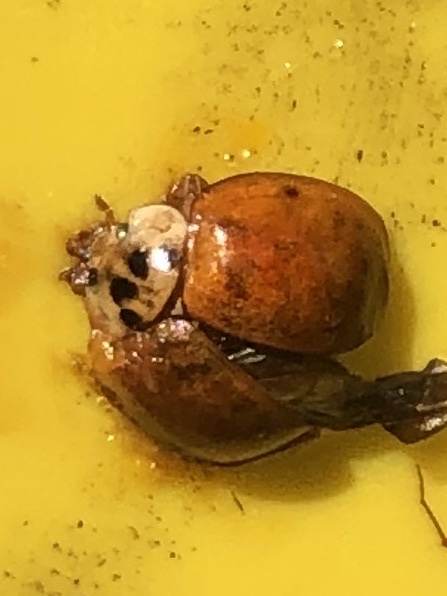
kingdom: Animalia
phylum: Arthropoda
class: Insecta
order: Coleoptera
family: Coccinellidae
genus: Harmonia
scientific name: Harmonia axyridis
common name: Harlequin ladybird
